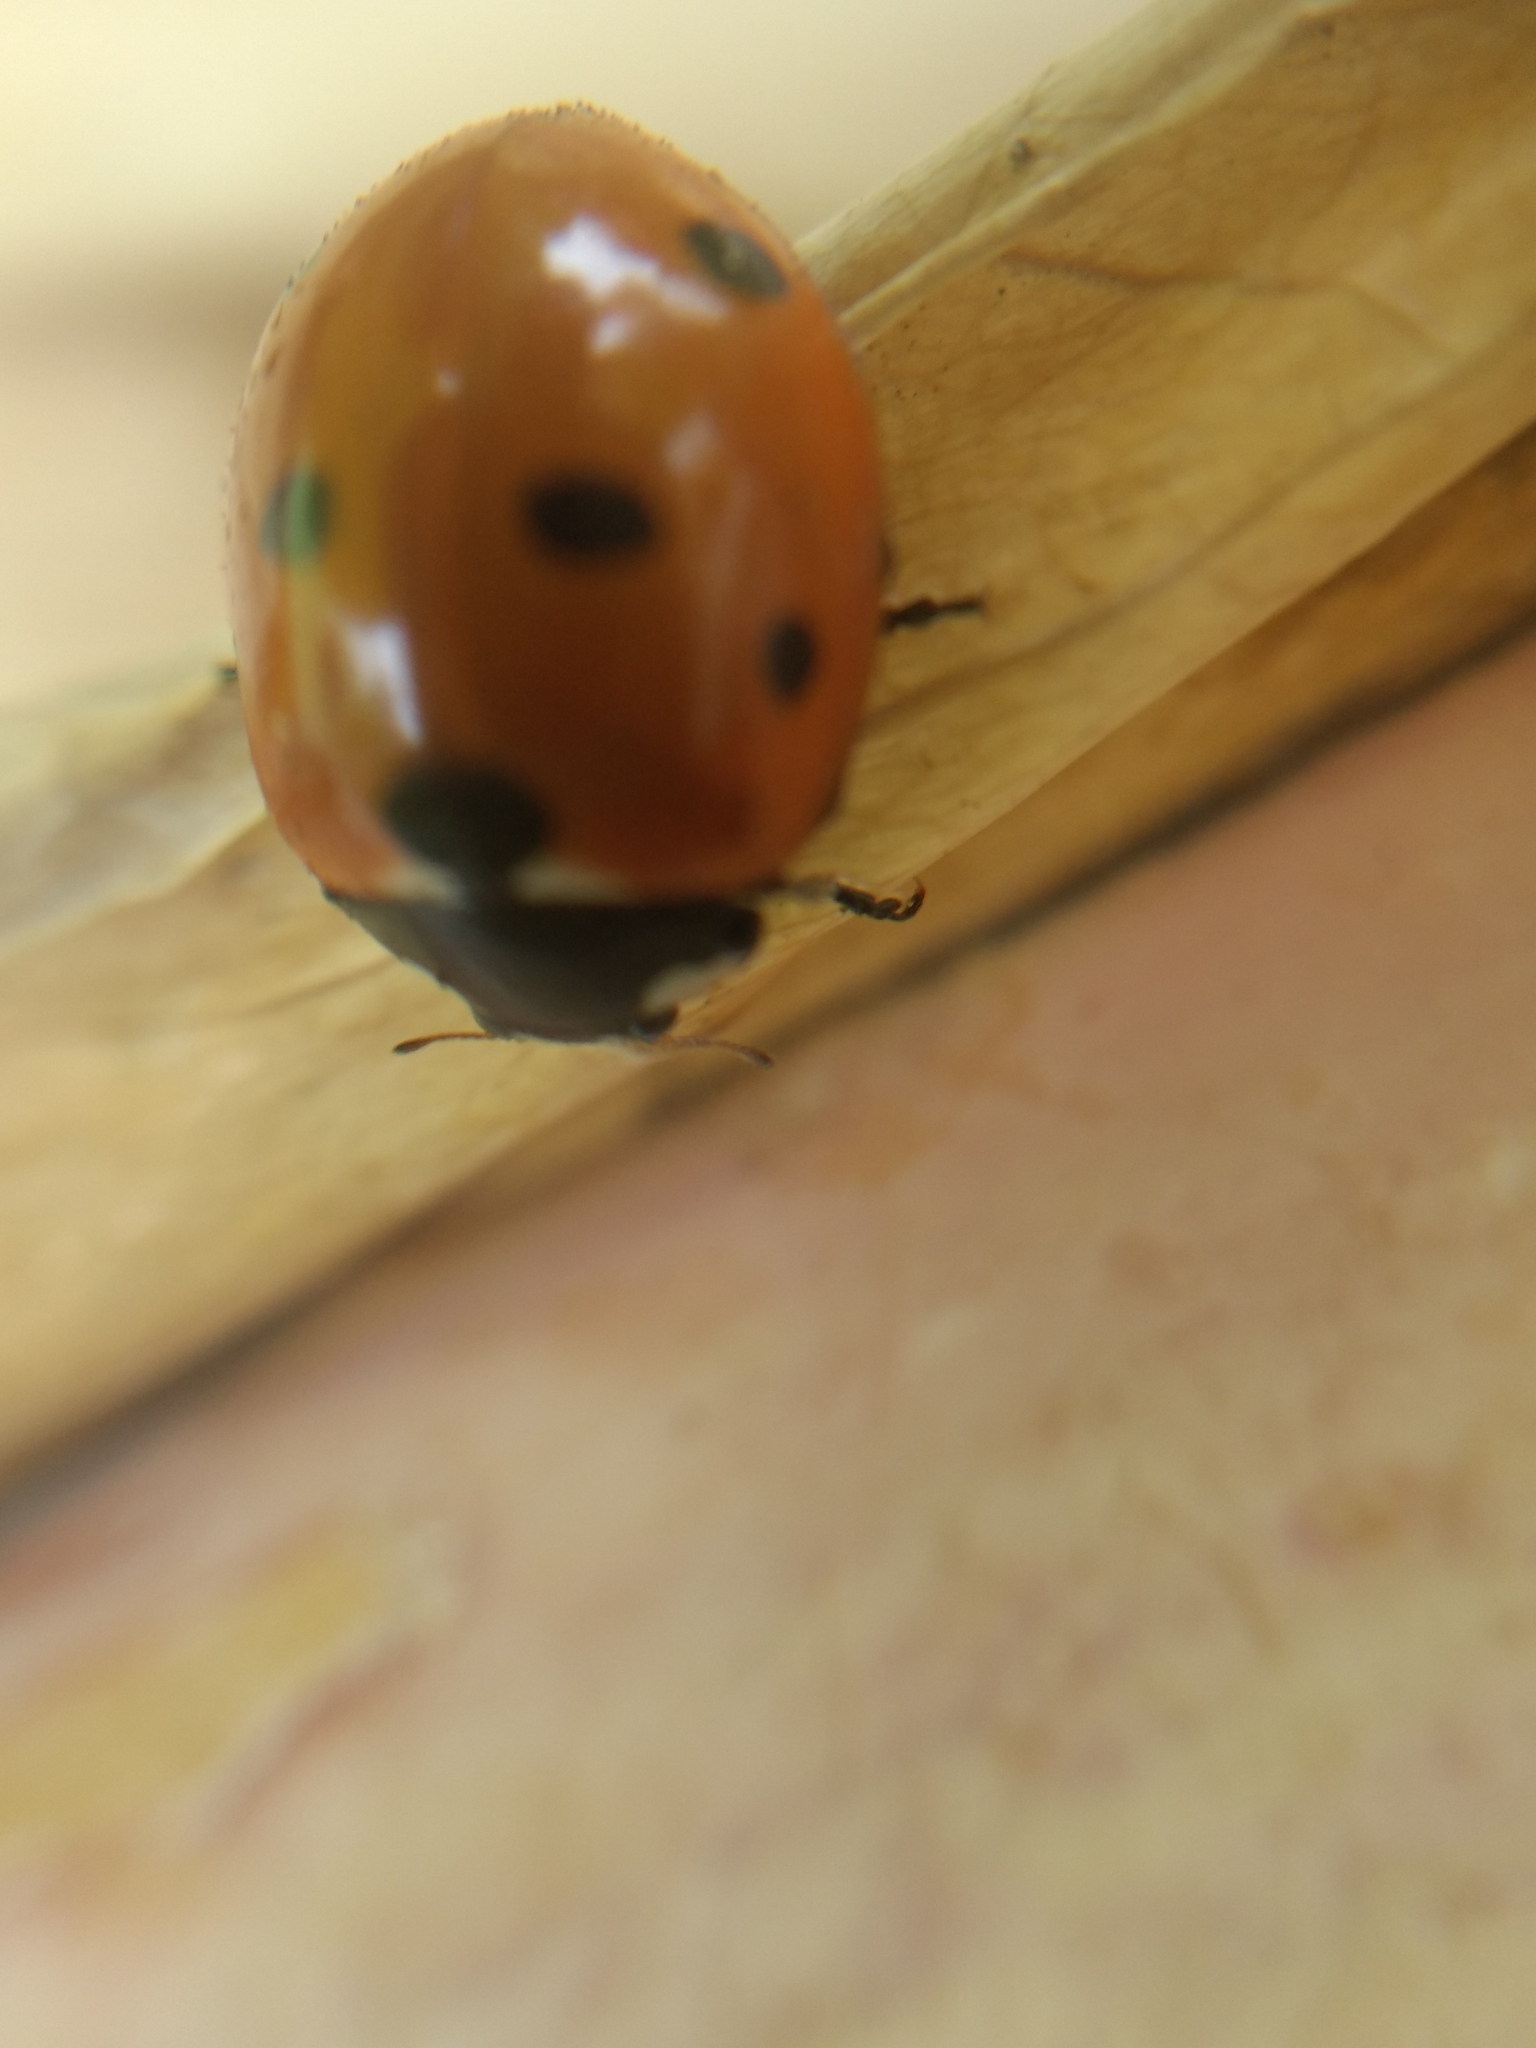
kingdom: Animalia
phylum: Arthropoda
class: Insecta
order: Coleoptera
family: Coccinellidae
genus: Coccinella
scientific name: Coccinella septempunctata
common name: Sevenspotted lady beetle
